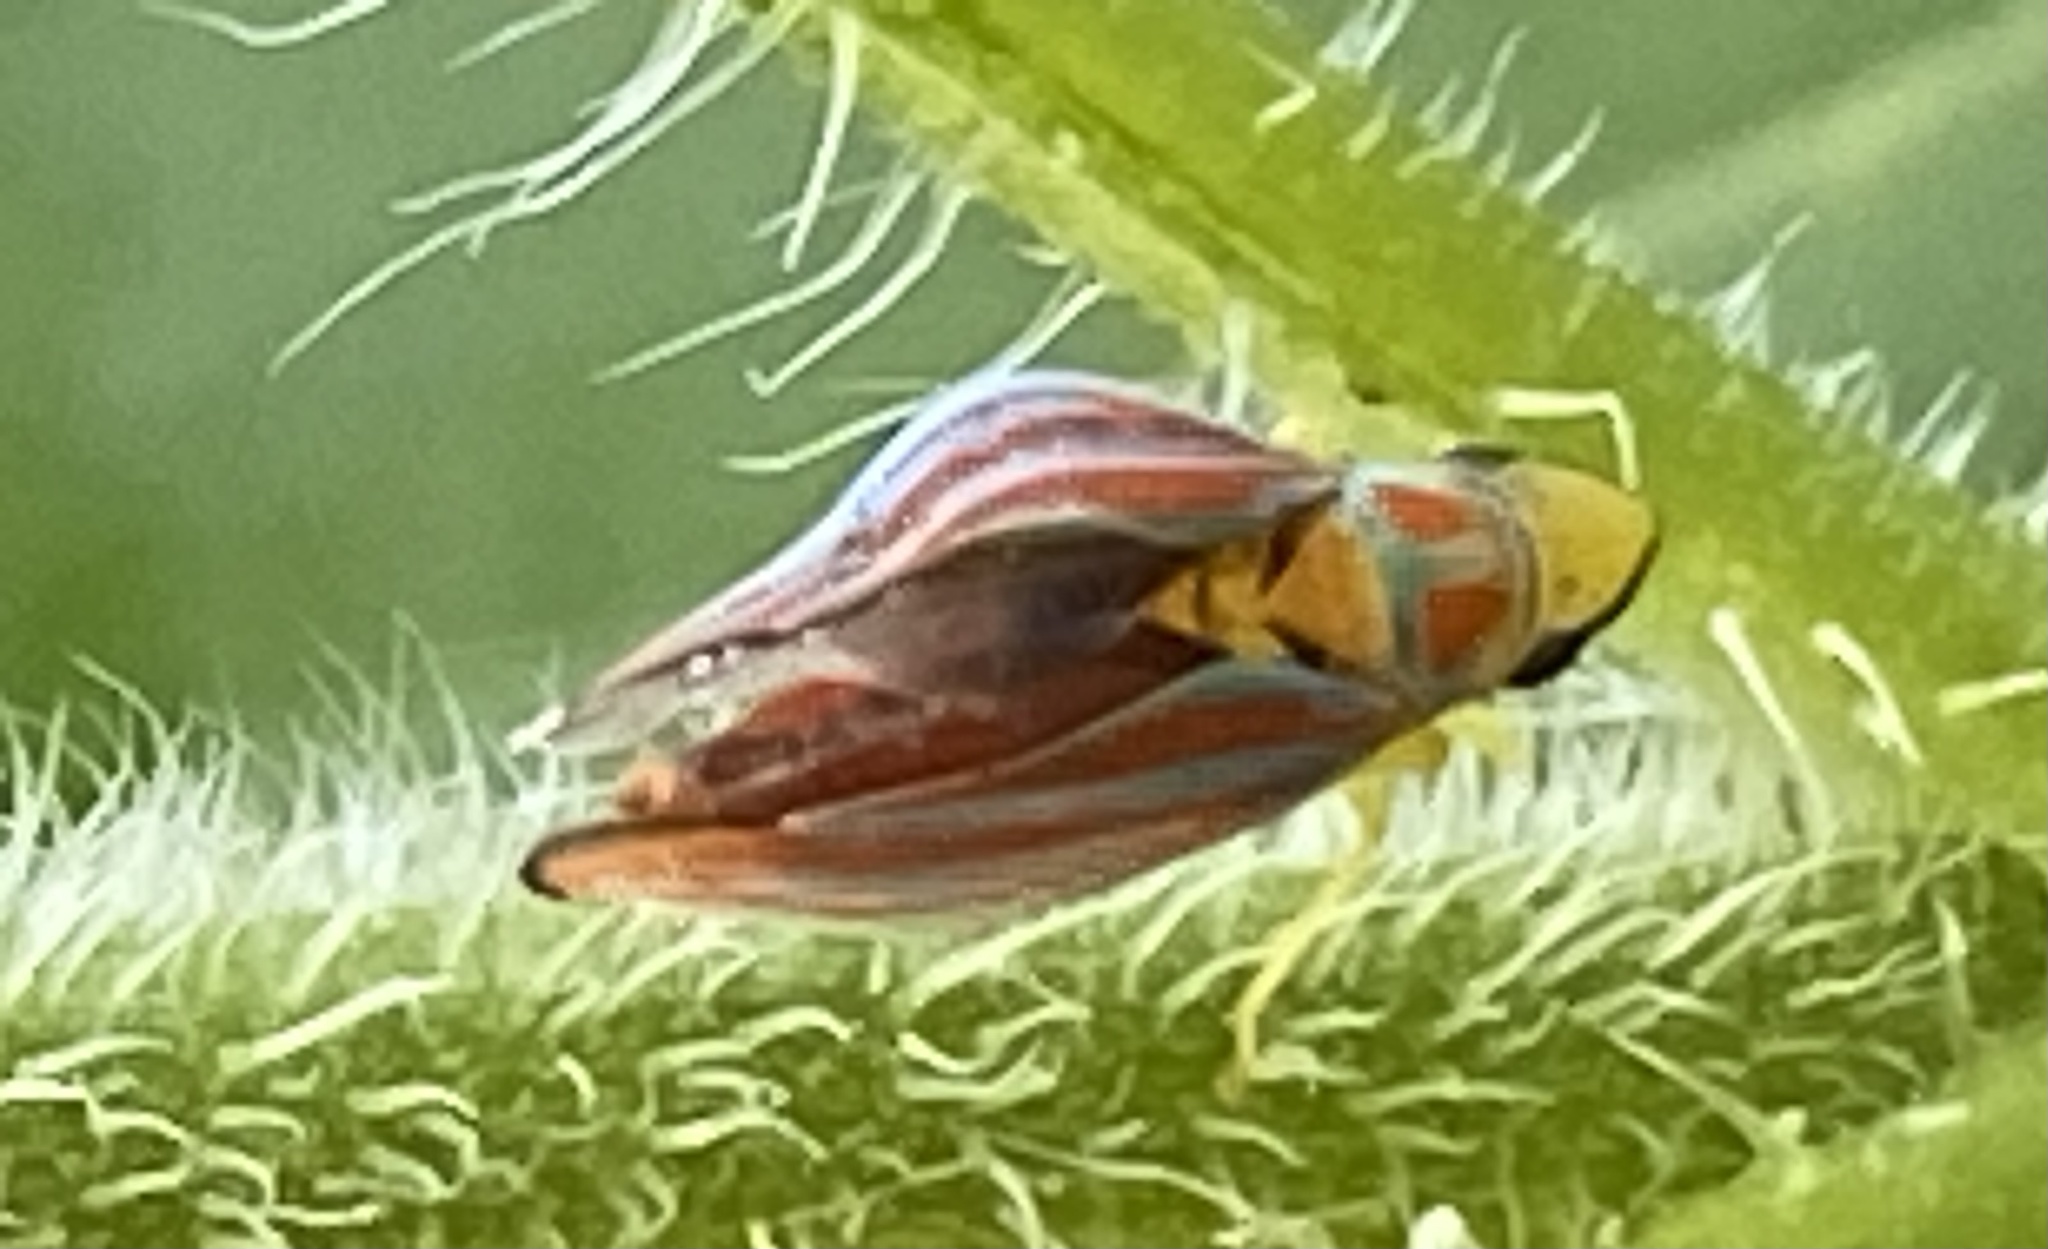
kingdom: Animalia
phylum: Arthropoda
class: Insecta
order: Hemiptera
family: Cicadellidae
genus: Graphocephala
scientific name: Graphocephala coccinea
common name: Candy-striped leafhopper
